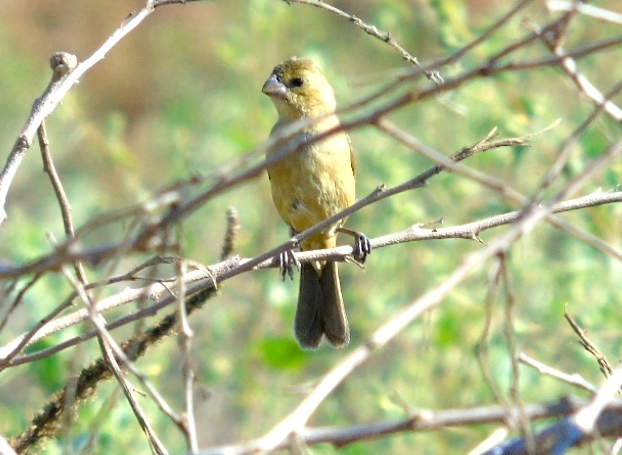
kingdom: Animalia
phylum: Chordata
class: Aves
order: Passeriformes
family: Thraupidae
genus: Sporophila
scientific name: Sporophila torqueola
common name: White-collared seedeater
